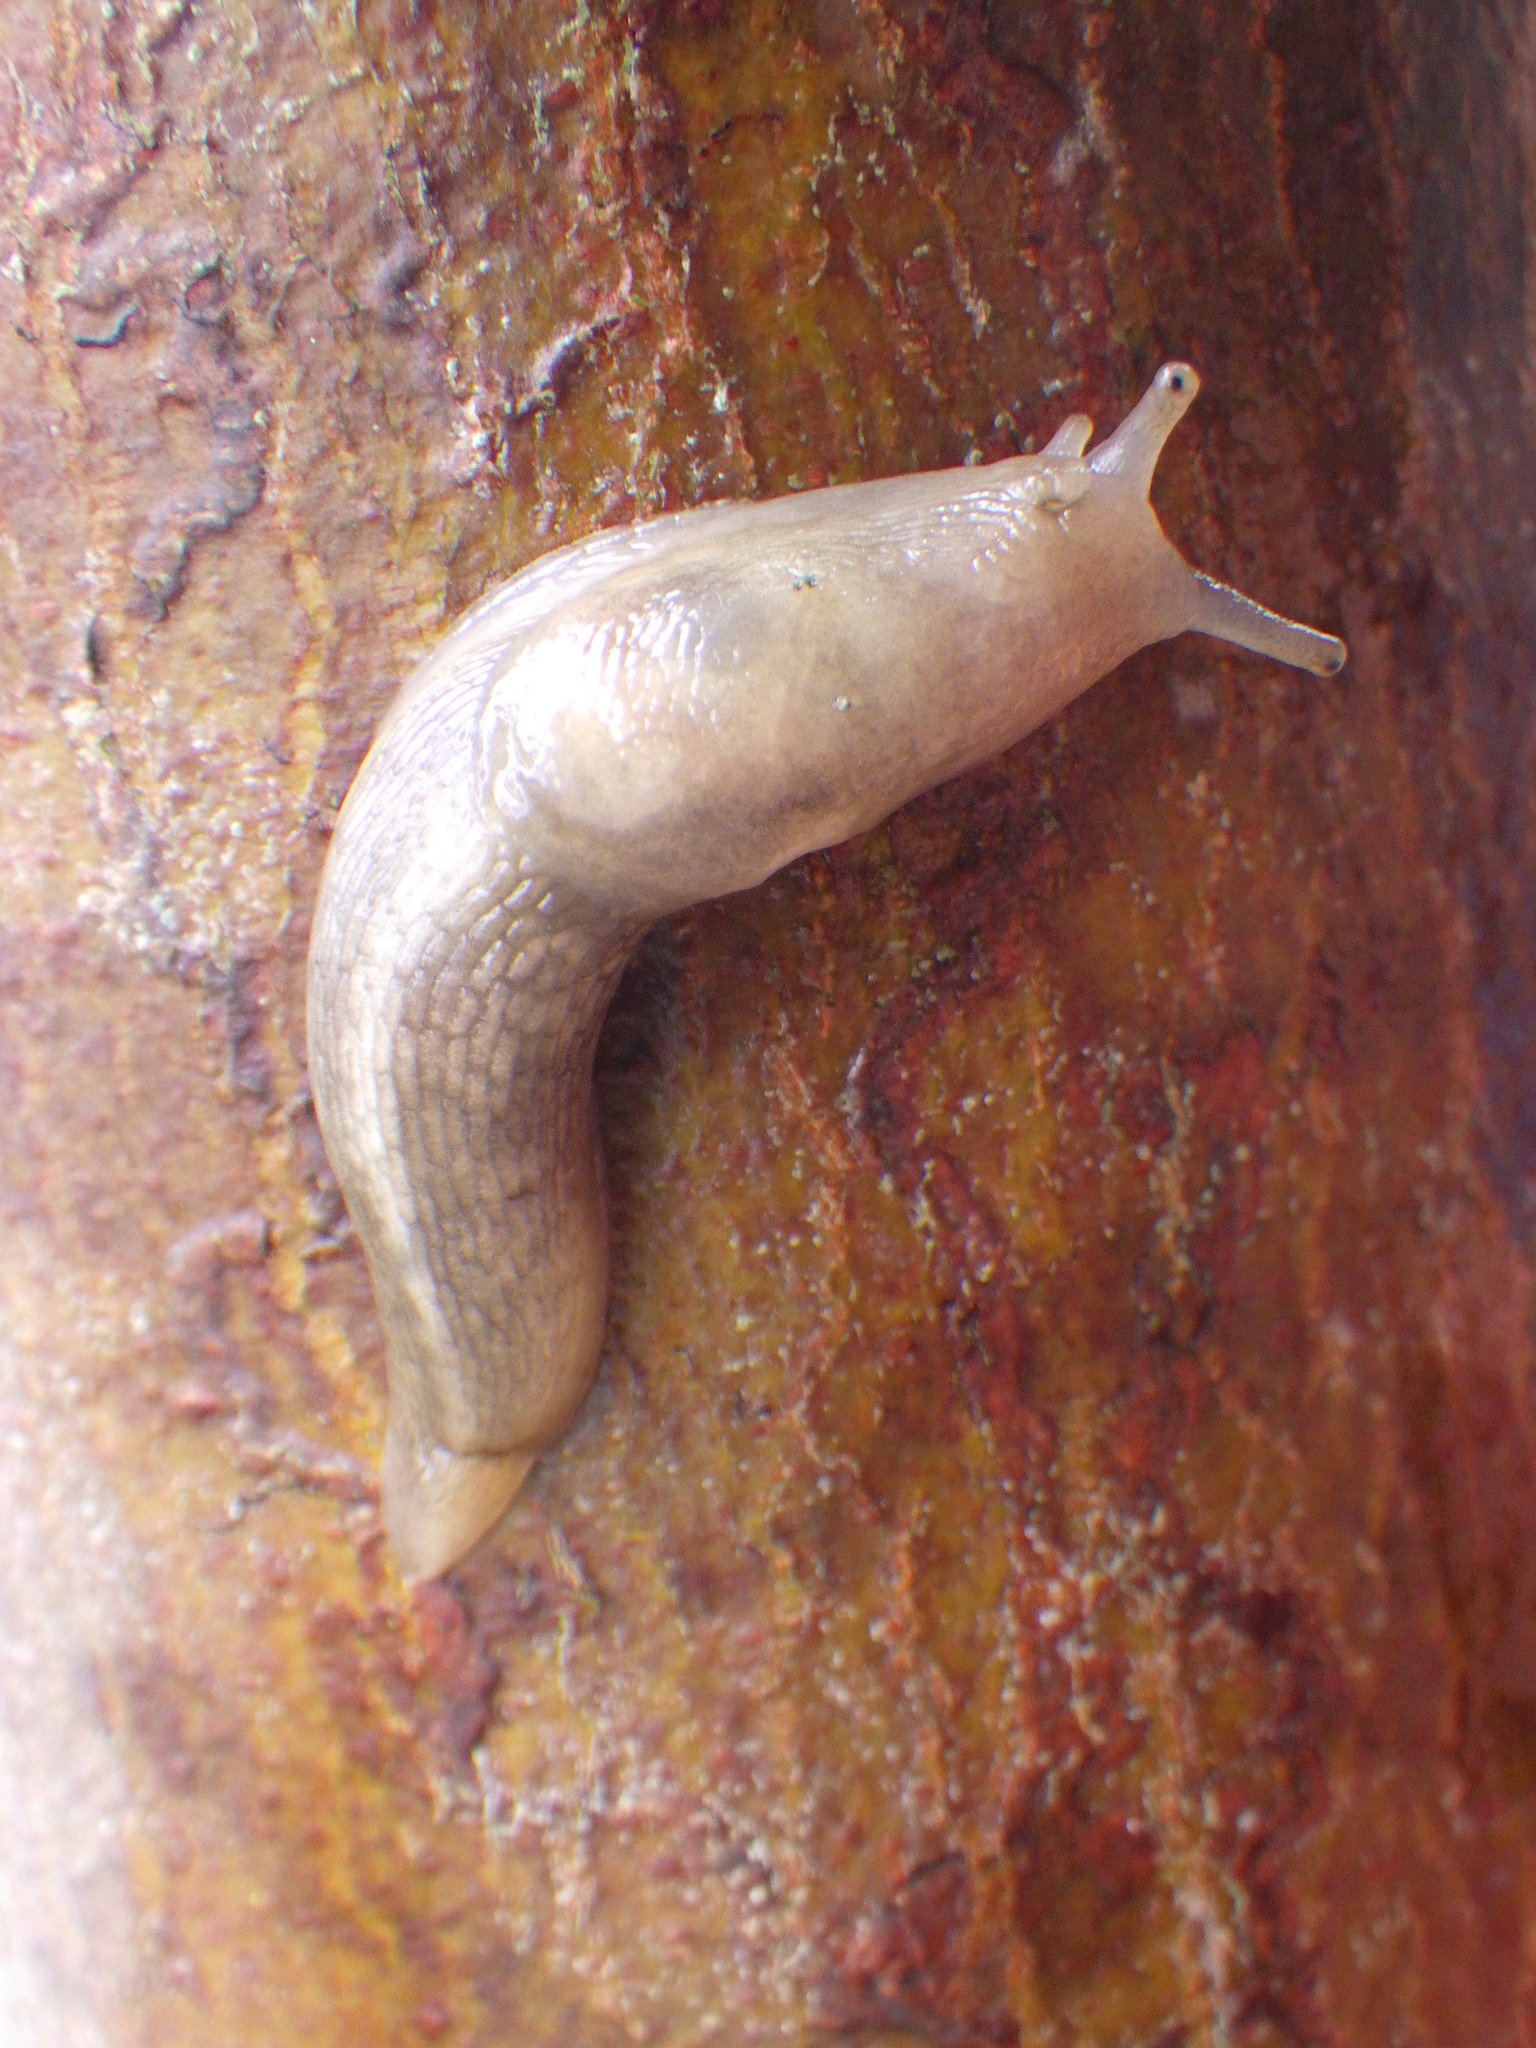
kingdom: Animalia
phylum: Mollusca
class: Gastropoda
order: Stylommatophora
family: Limacidae
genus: Lehmannia
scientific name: Lehmannia marginata
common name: Tree slug
